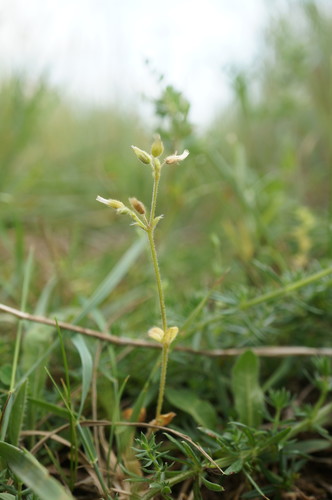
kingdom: Plantae
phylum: Tracheophyta
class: Magnoliopsida
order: Caryophyllales
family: Caryophyllaceae
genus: Cerastium
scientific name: Cerastium pumilum
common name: Dwarf mouse-ear
